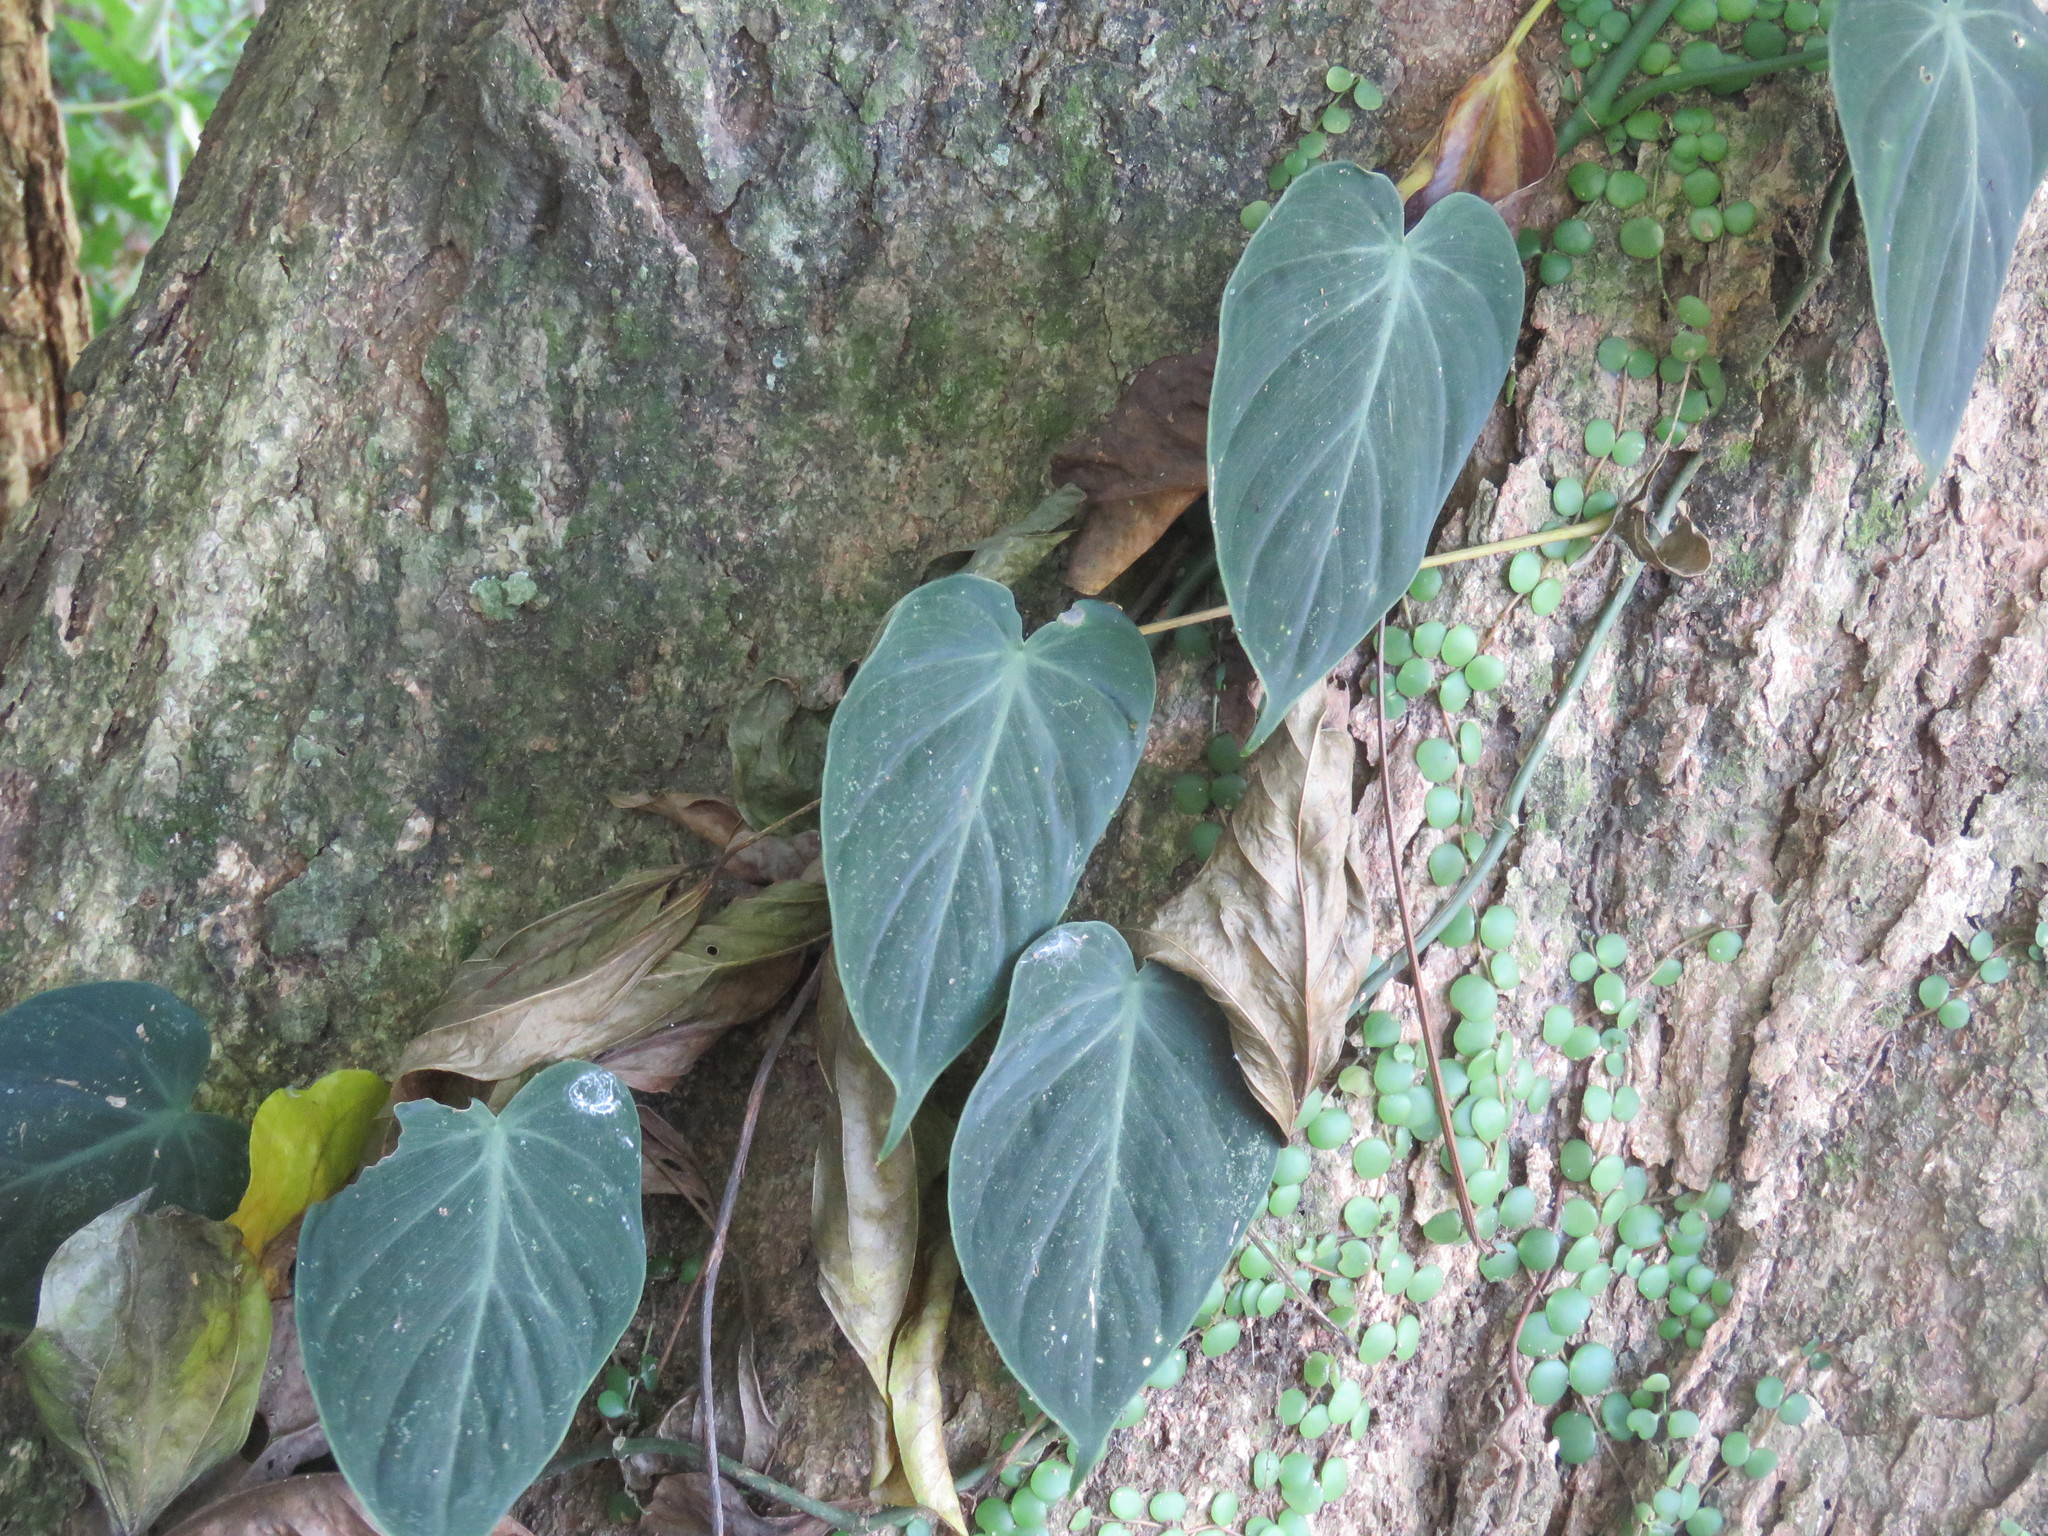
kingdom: Plantae
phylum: Tracheophyta
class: Liliopsida
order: Alismatales
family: Araceae
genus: Philodendron
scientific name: Philodendron hederaceum
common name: Vilevine
